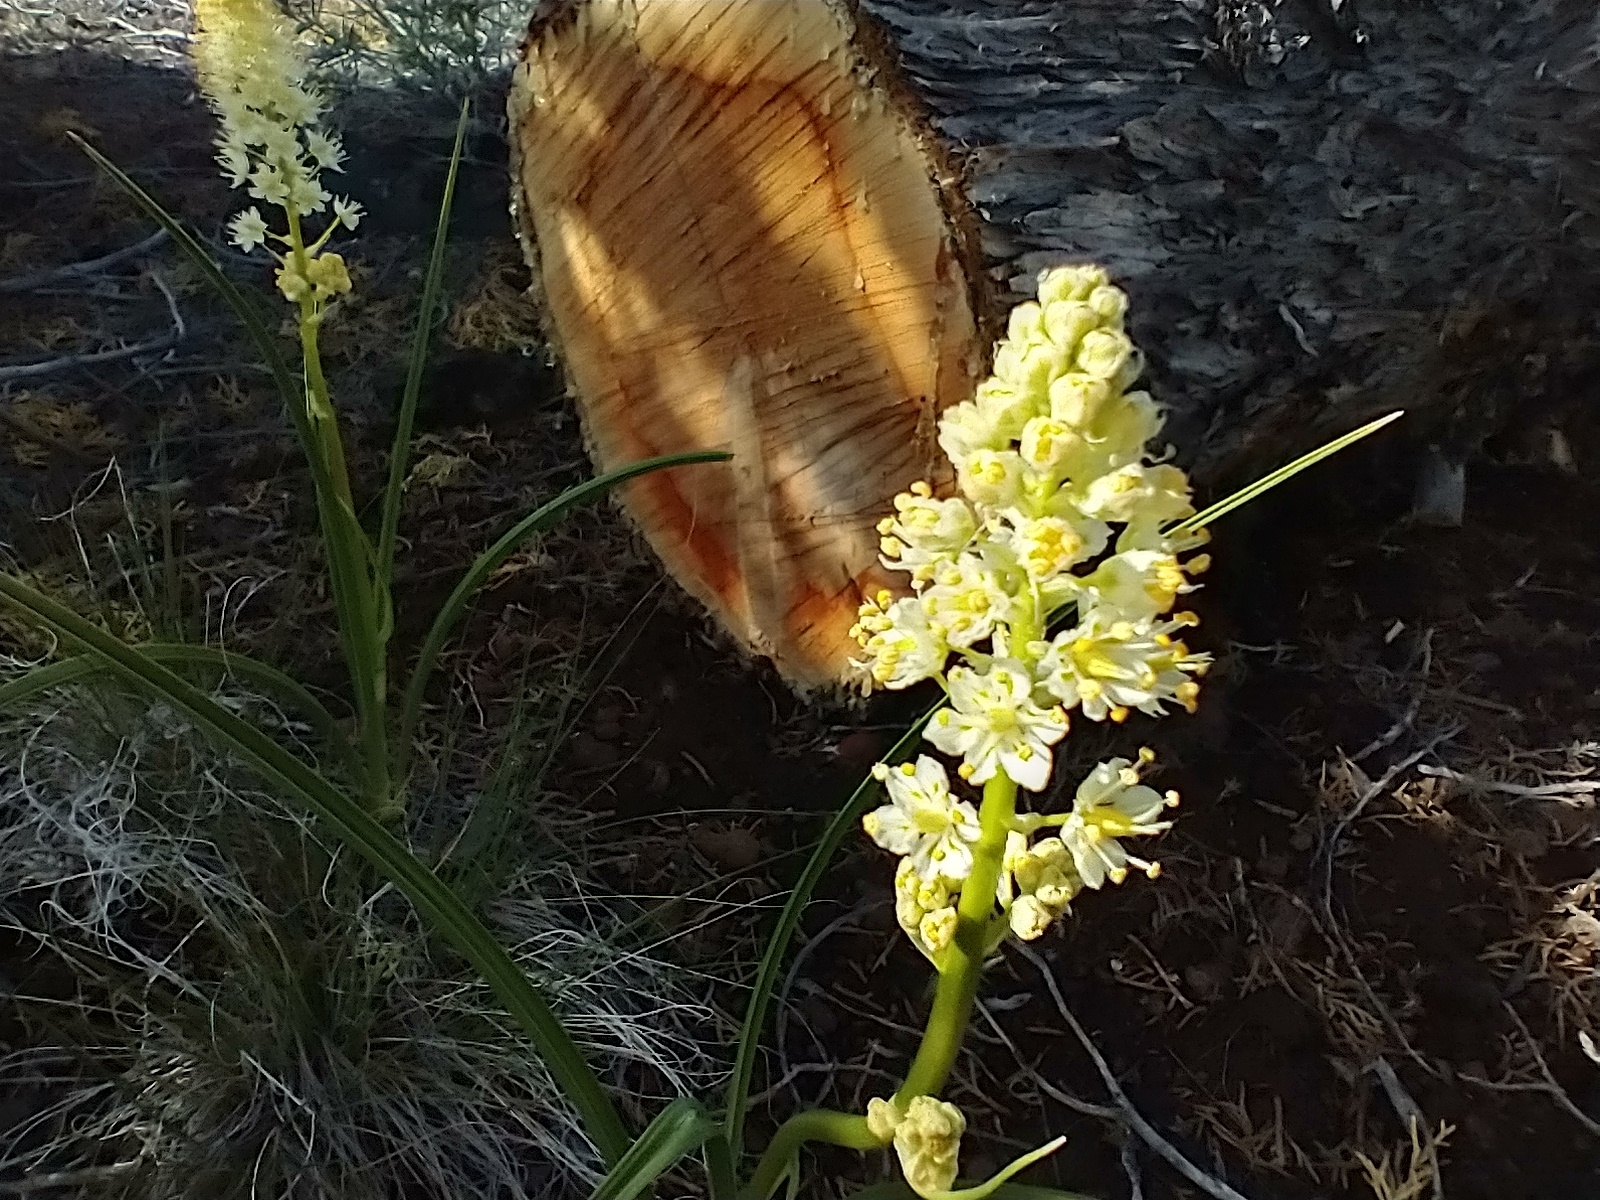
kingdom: Plantae
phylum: Tracheophyta
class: Liliopsida
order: Liliales
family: Melanthiaceae
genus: Toxicoscordion
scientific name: Toxicoscordion venenosum
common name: Meadow death camas
